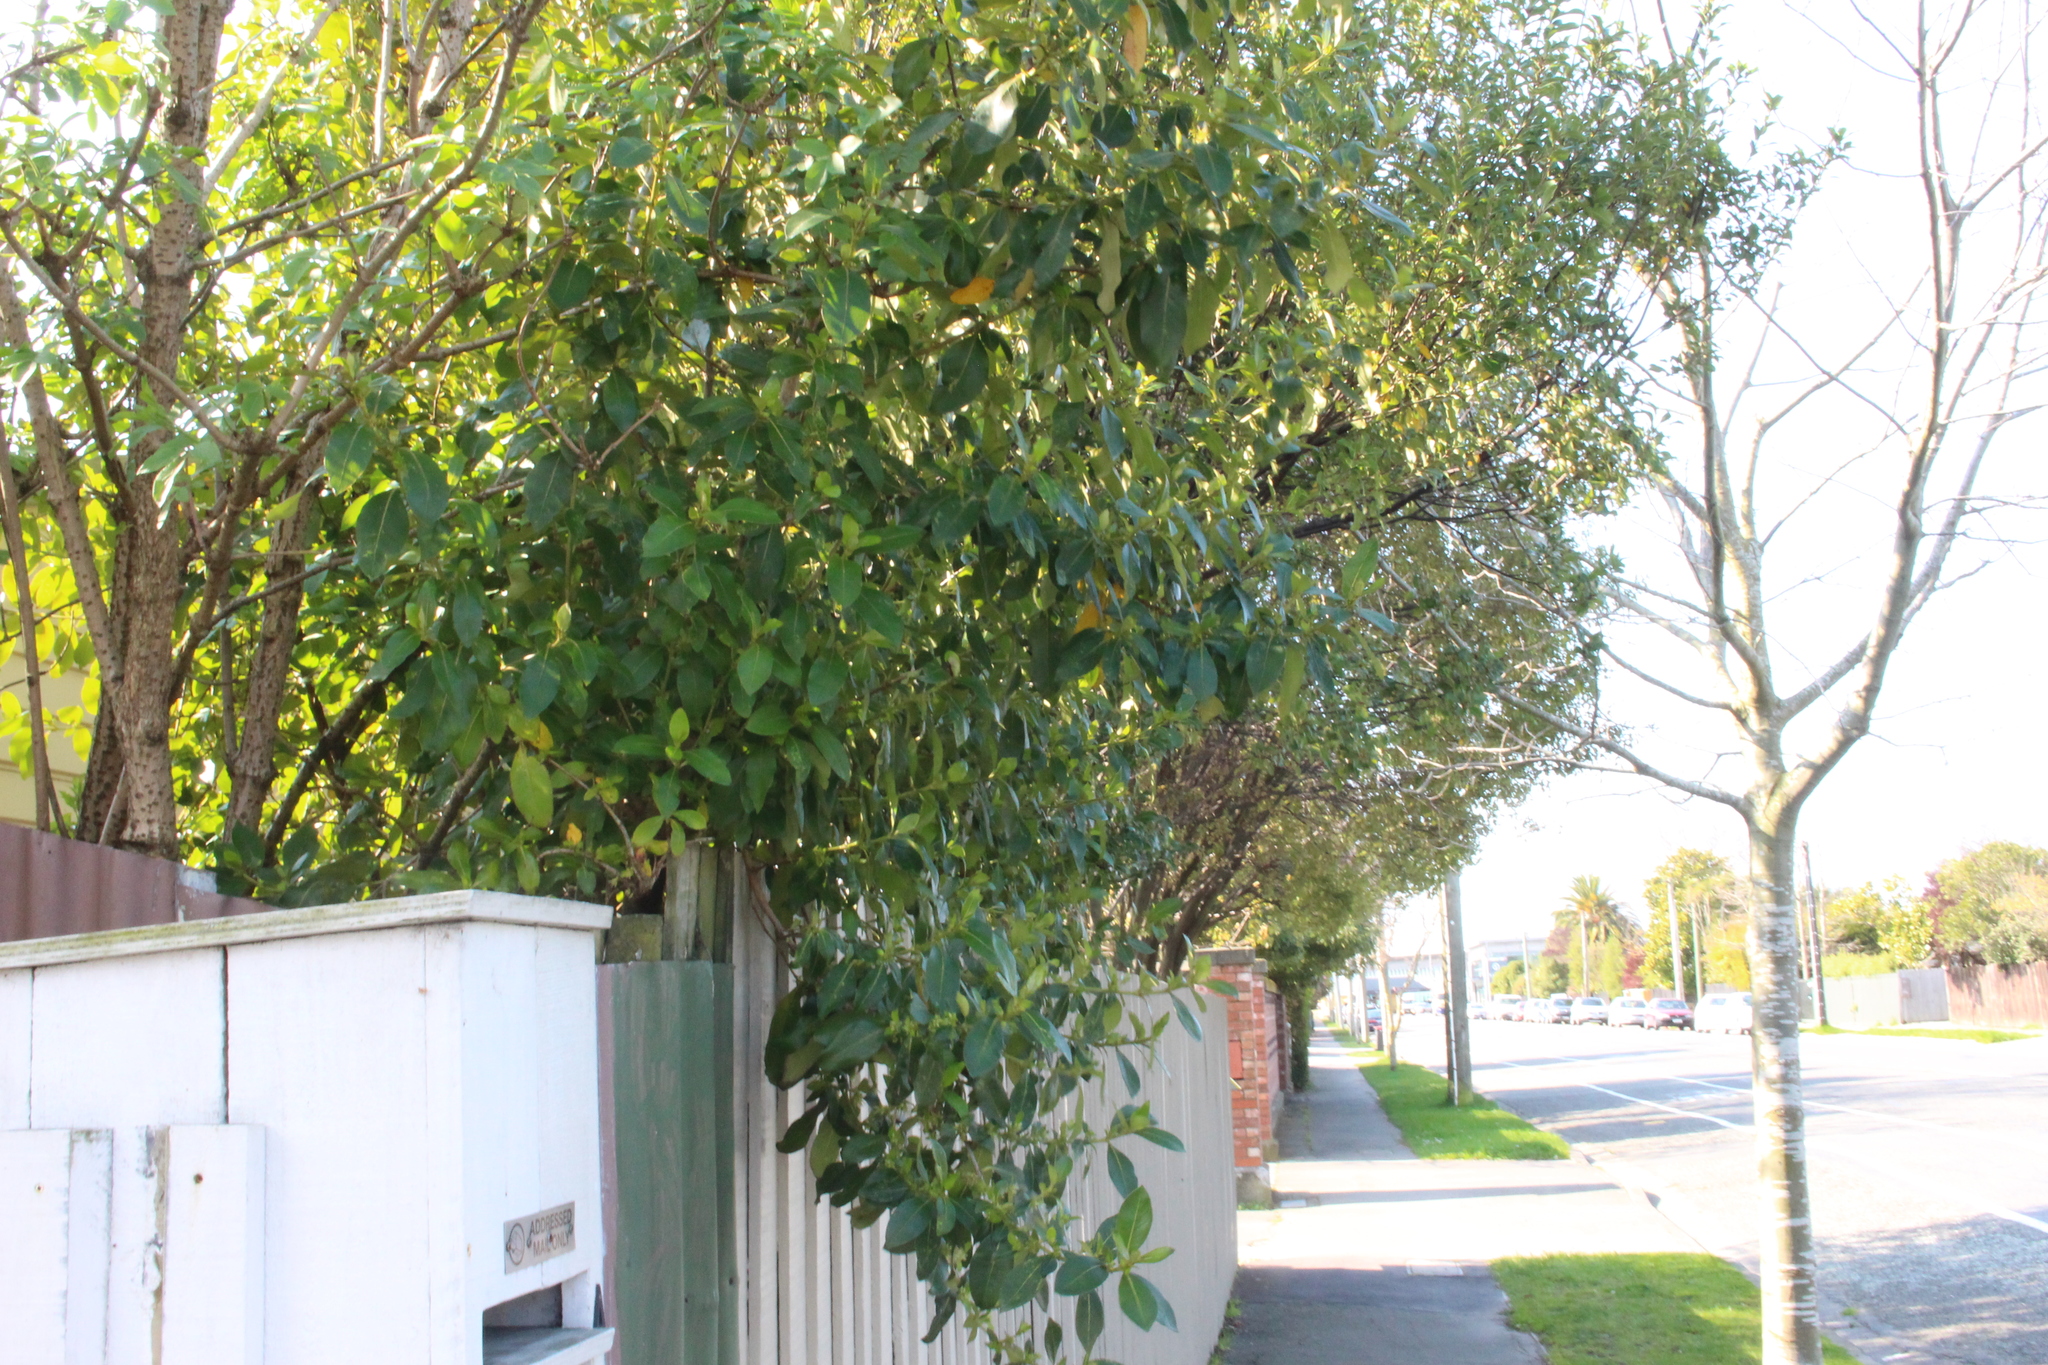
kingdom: Plantae
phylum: Tracheophyta
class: Magnoliopsida
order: Gentianales
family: Rubiaceae
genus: Coprosma
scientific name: Coprosma robusta
